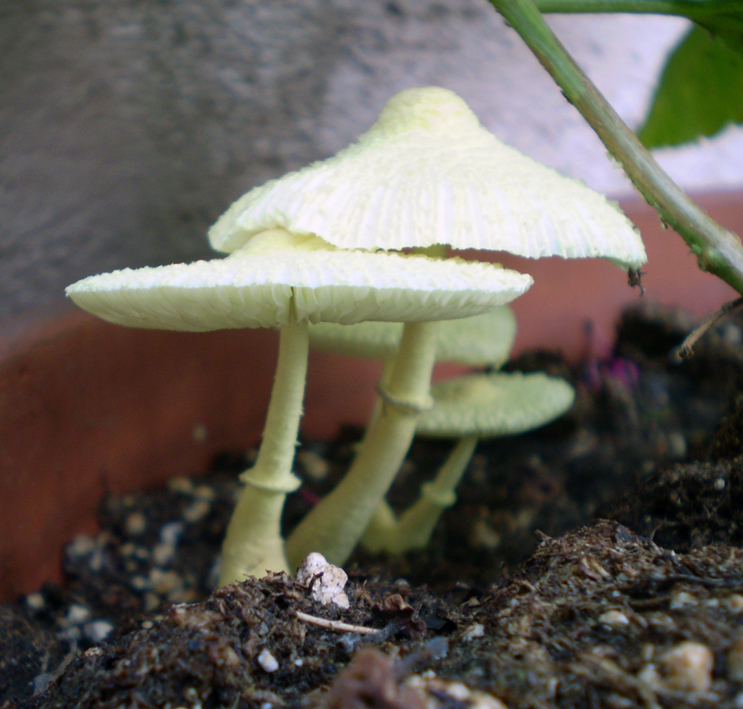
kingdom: Fungi
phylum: Basidiomycota
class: Agaricomycetes
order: Agaricales
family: Agaricaceae
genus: Leucocoprinus
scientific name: Leucocoprinus birnbaumii
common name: Plantpot dapperling
